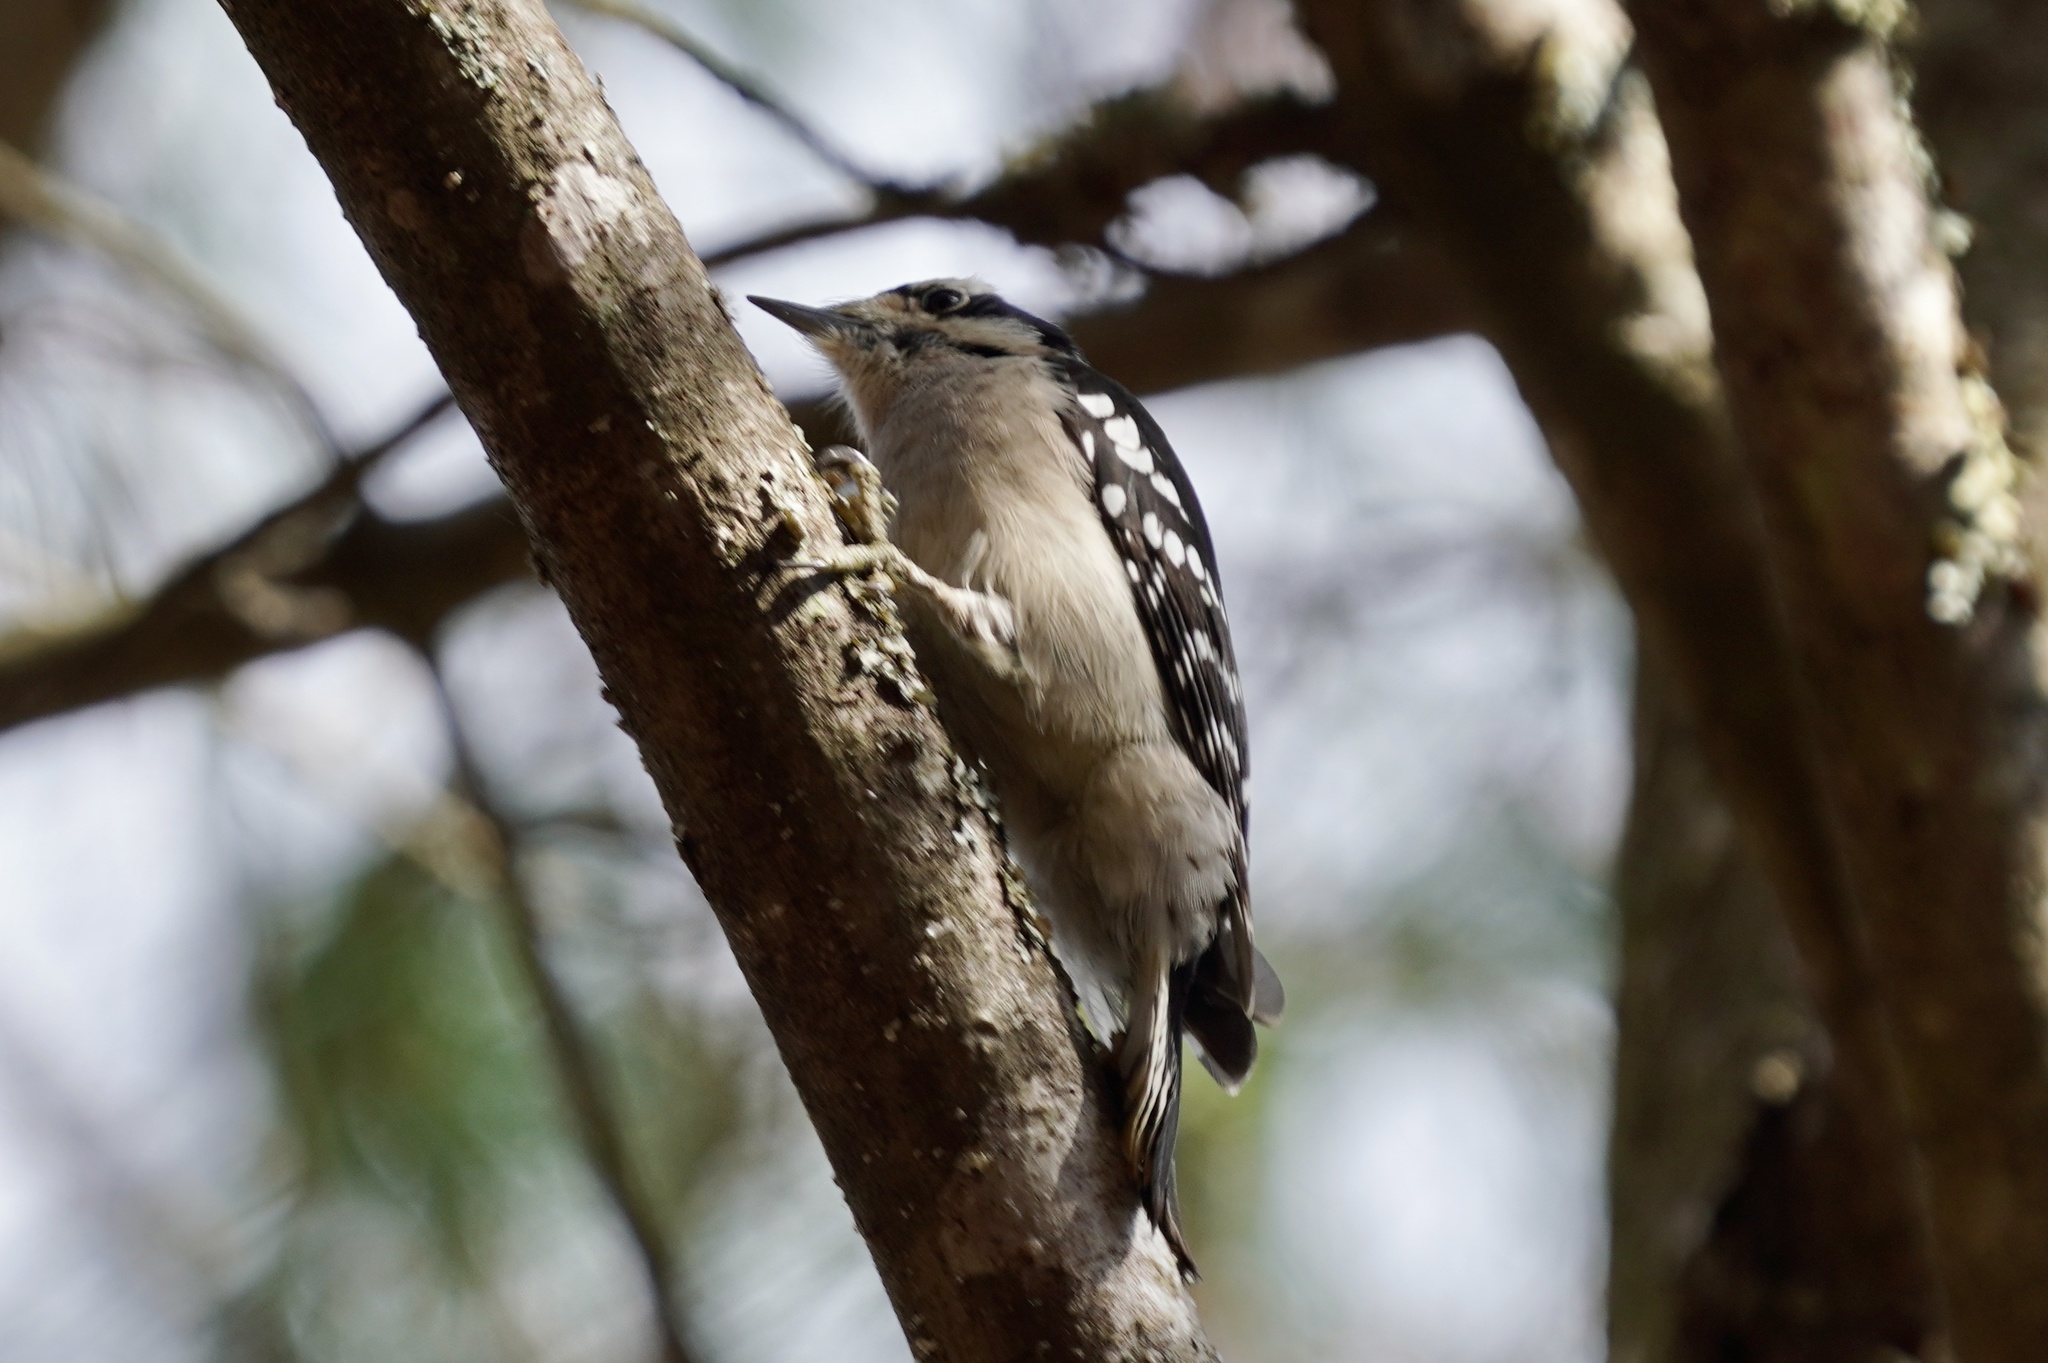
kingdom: Animalia
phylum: Chordata
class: Aves
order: Piciformes
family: Picidae
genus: Dryobates
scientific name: Dryobates pubescens
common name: Downy woodpecker
